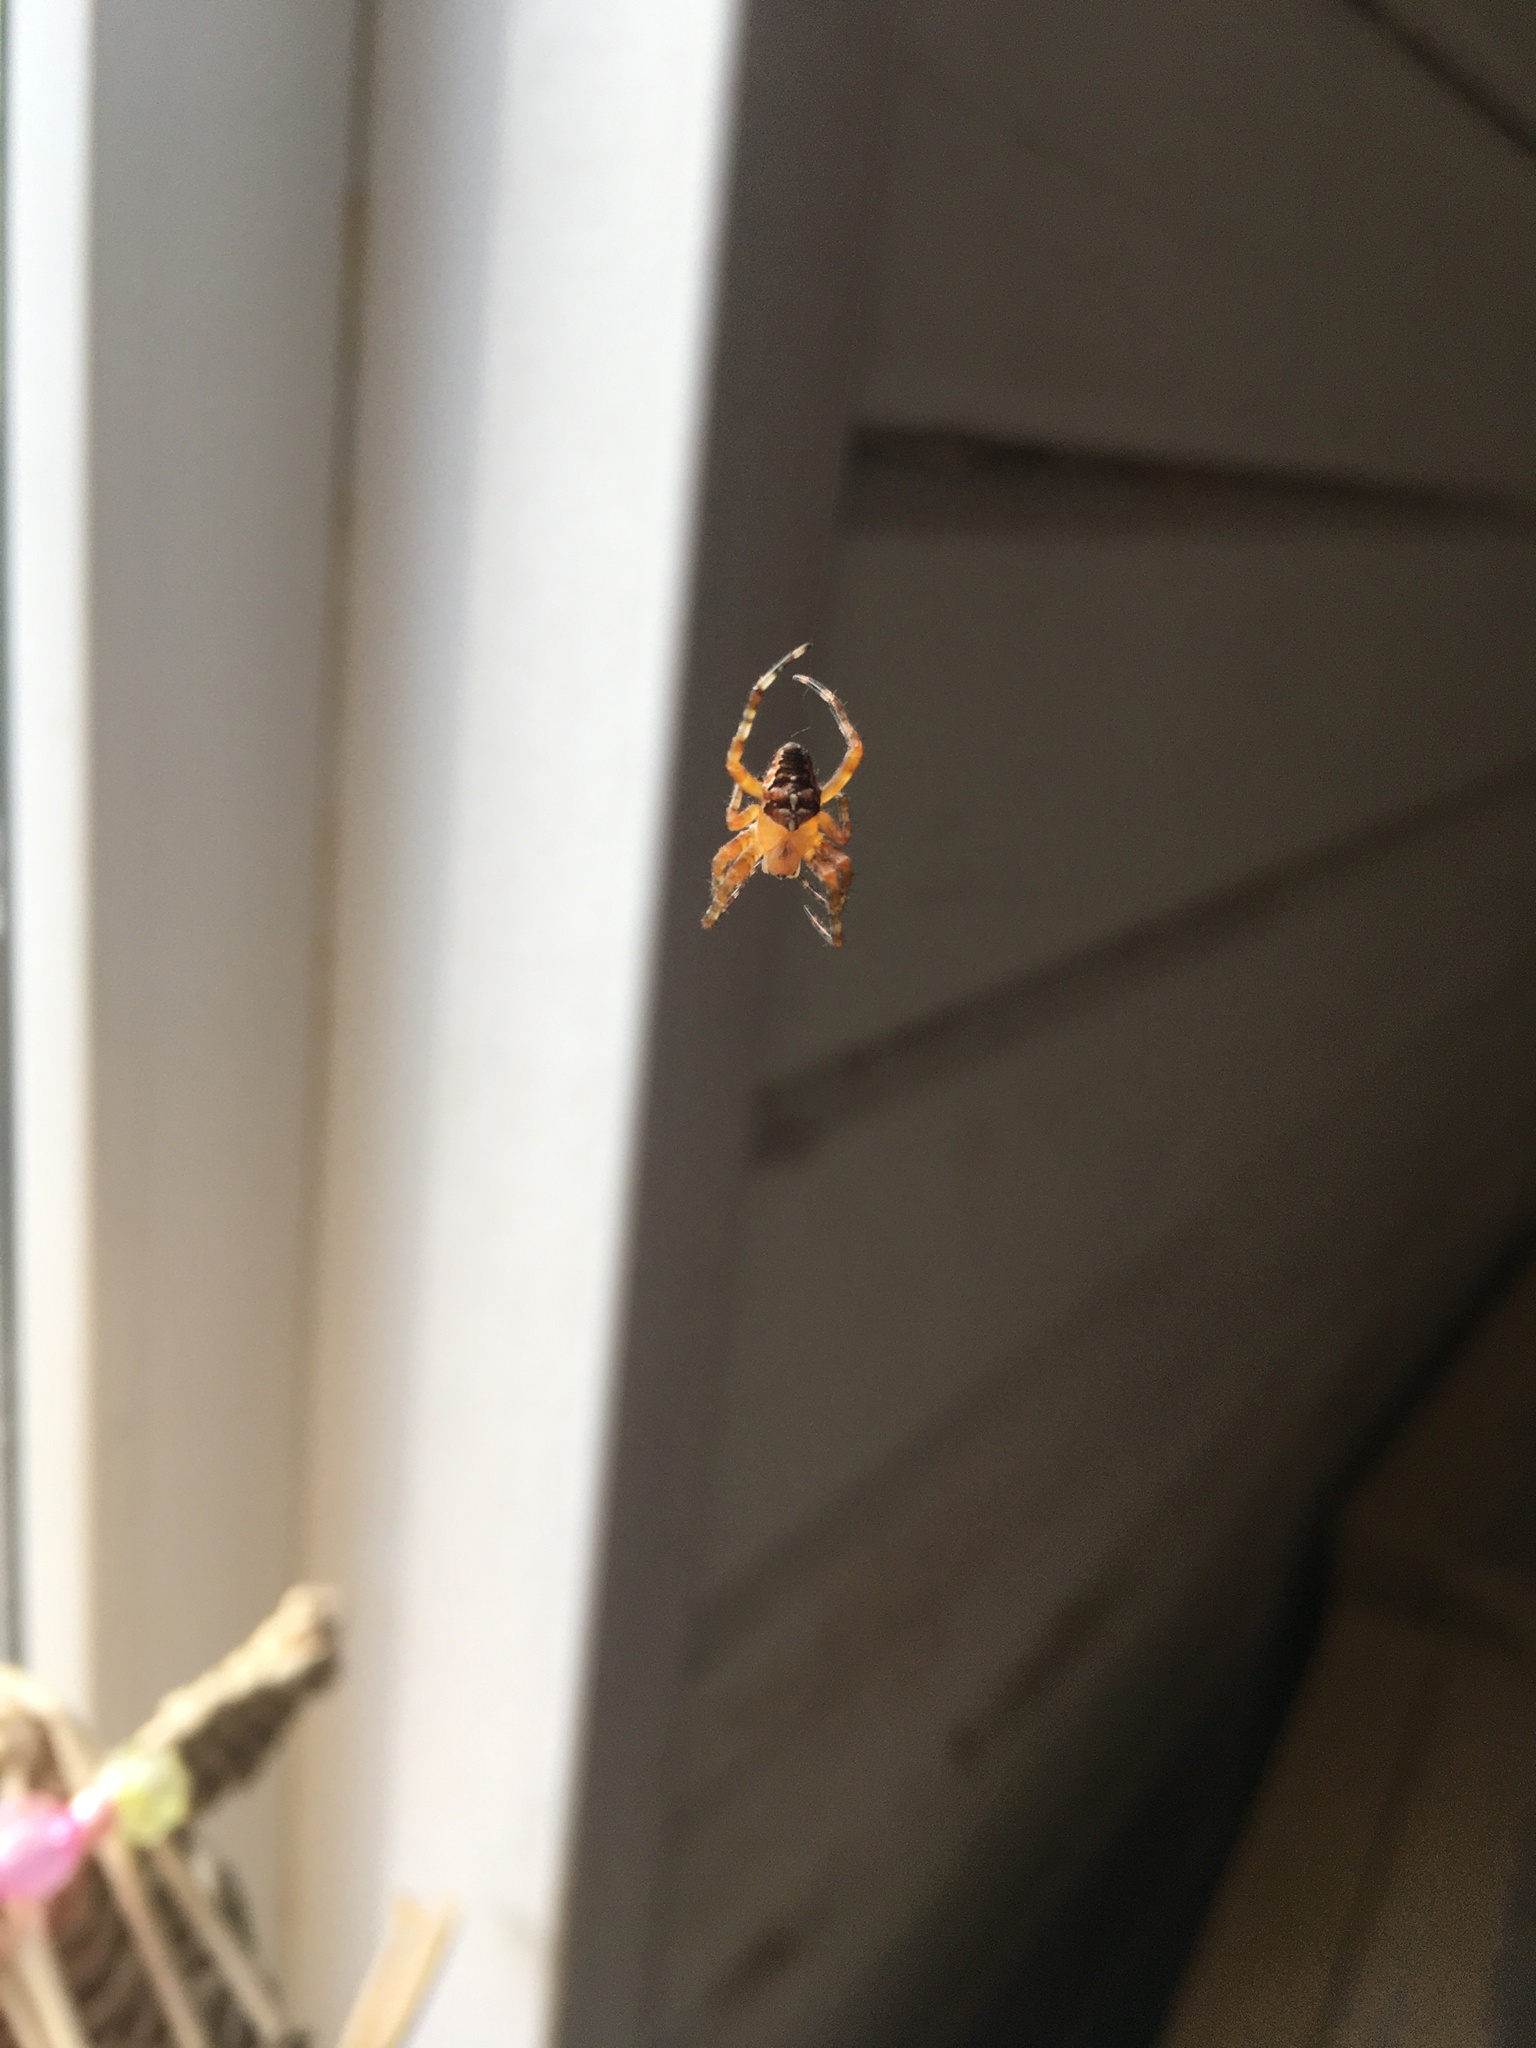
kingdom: Animalia
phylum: Arthropoda
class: Arachnida
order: Araneae
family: Araneidae
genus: Araneus
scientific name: Araneus diadematus
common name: Cross orbweaver
